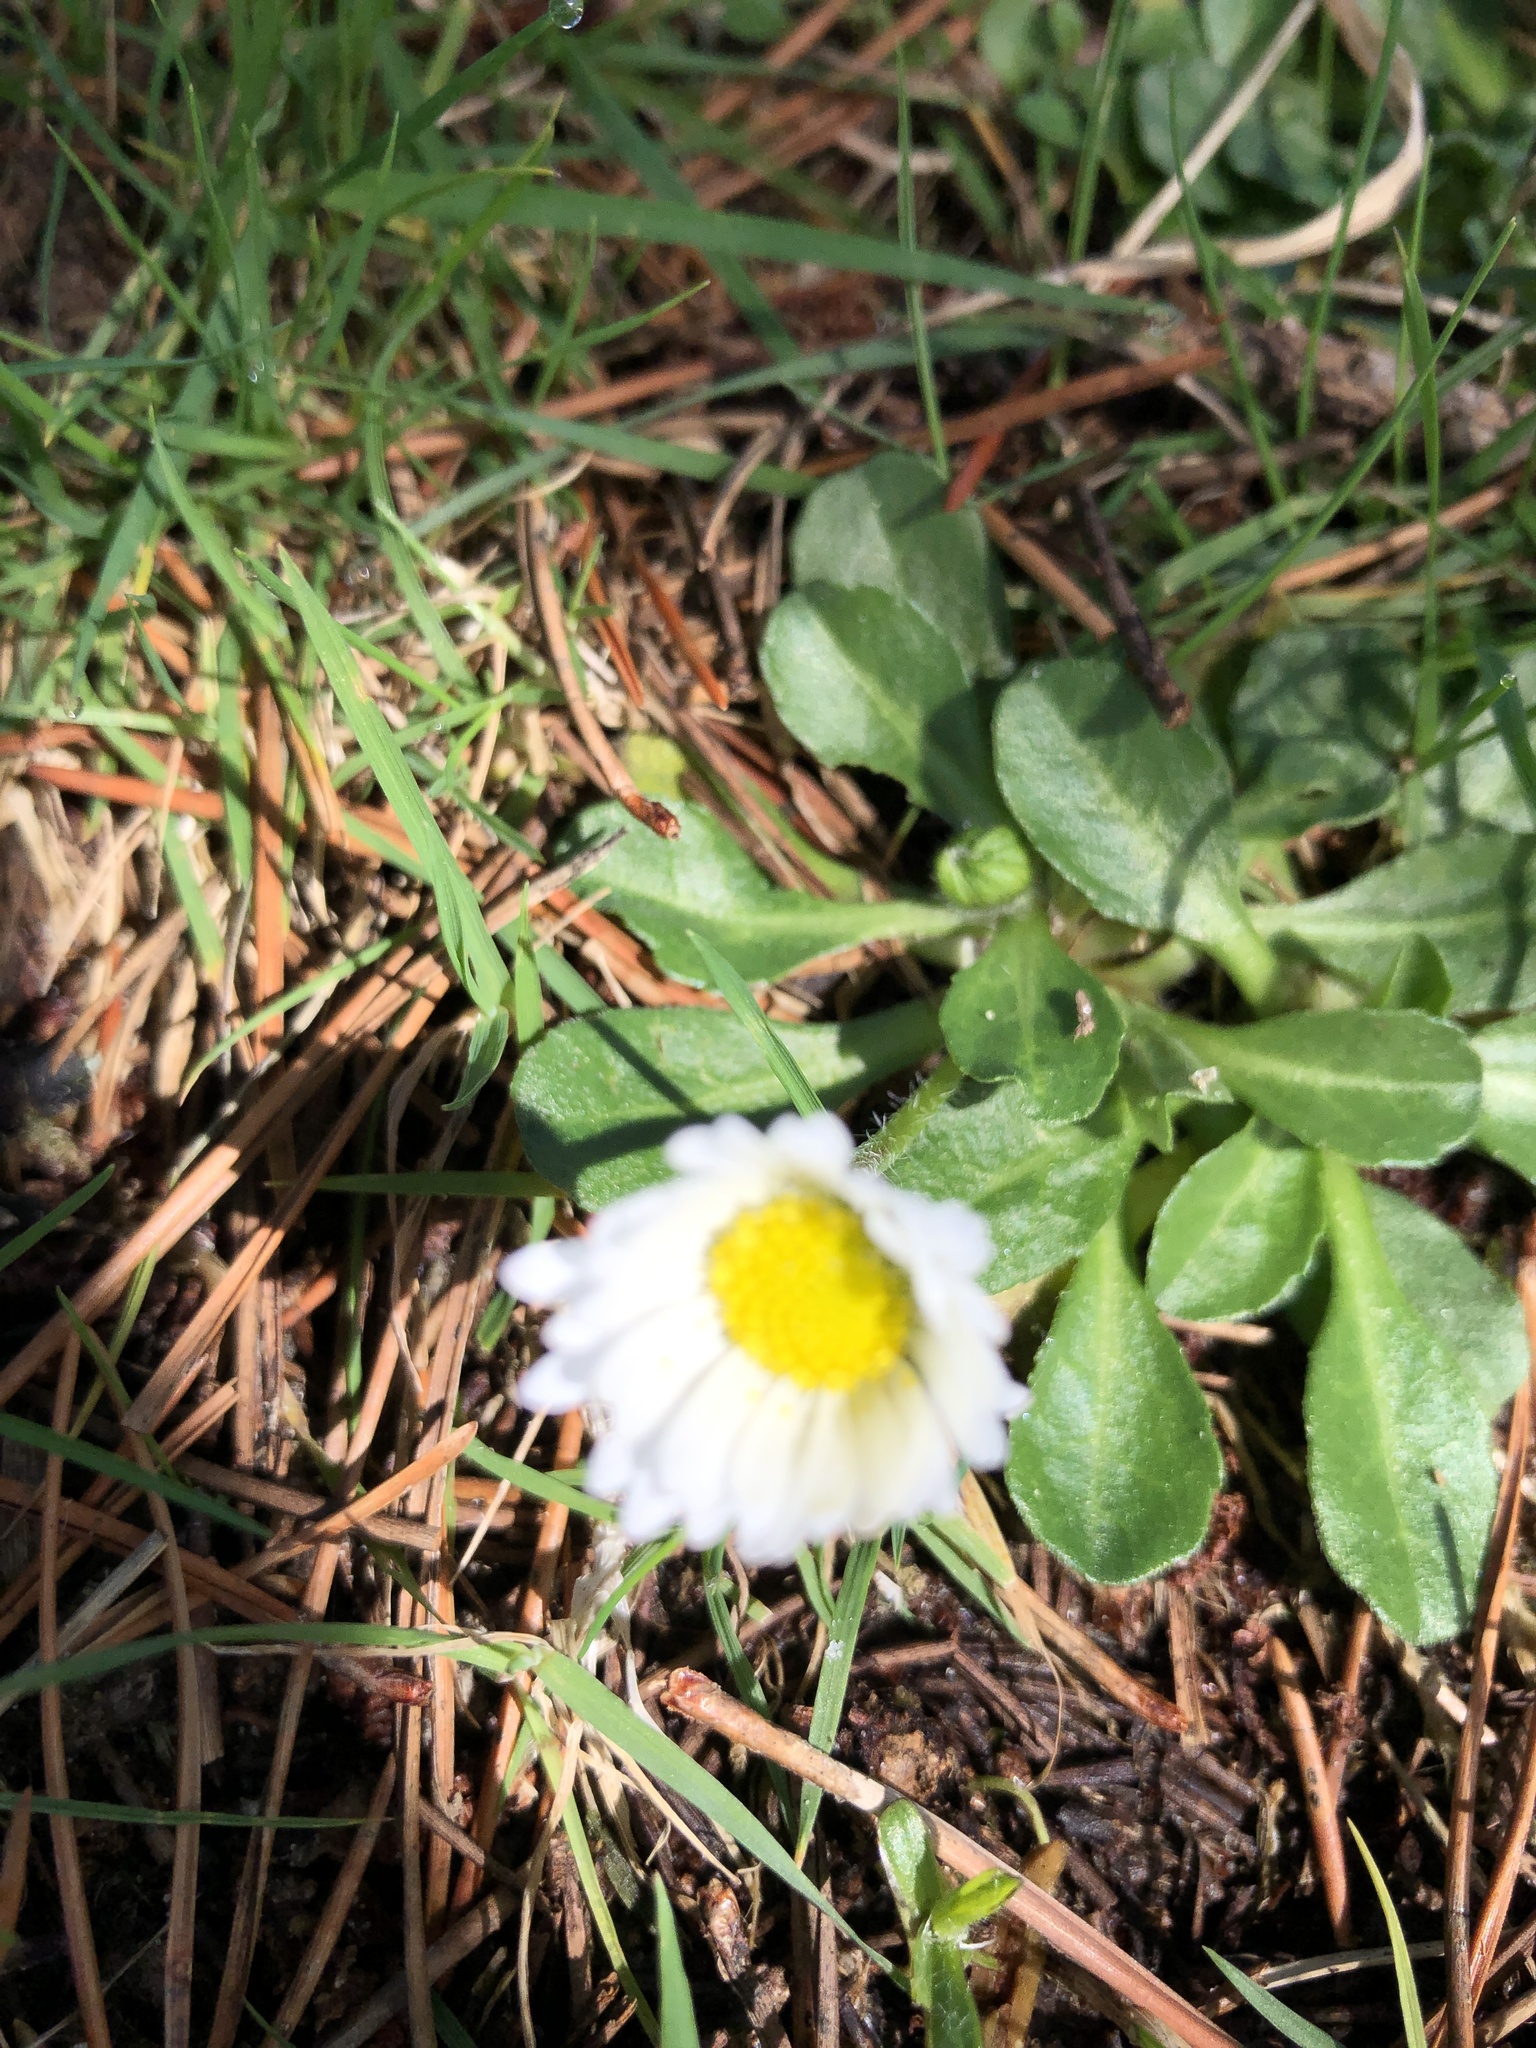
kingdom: Plantae
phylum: Tracheophyta
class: Magnoliopsida
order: Asterales
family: Asteraceae
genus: Bellis
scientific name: Bellis perennis
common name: Lawndaisy
